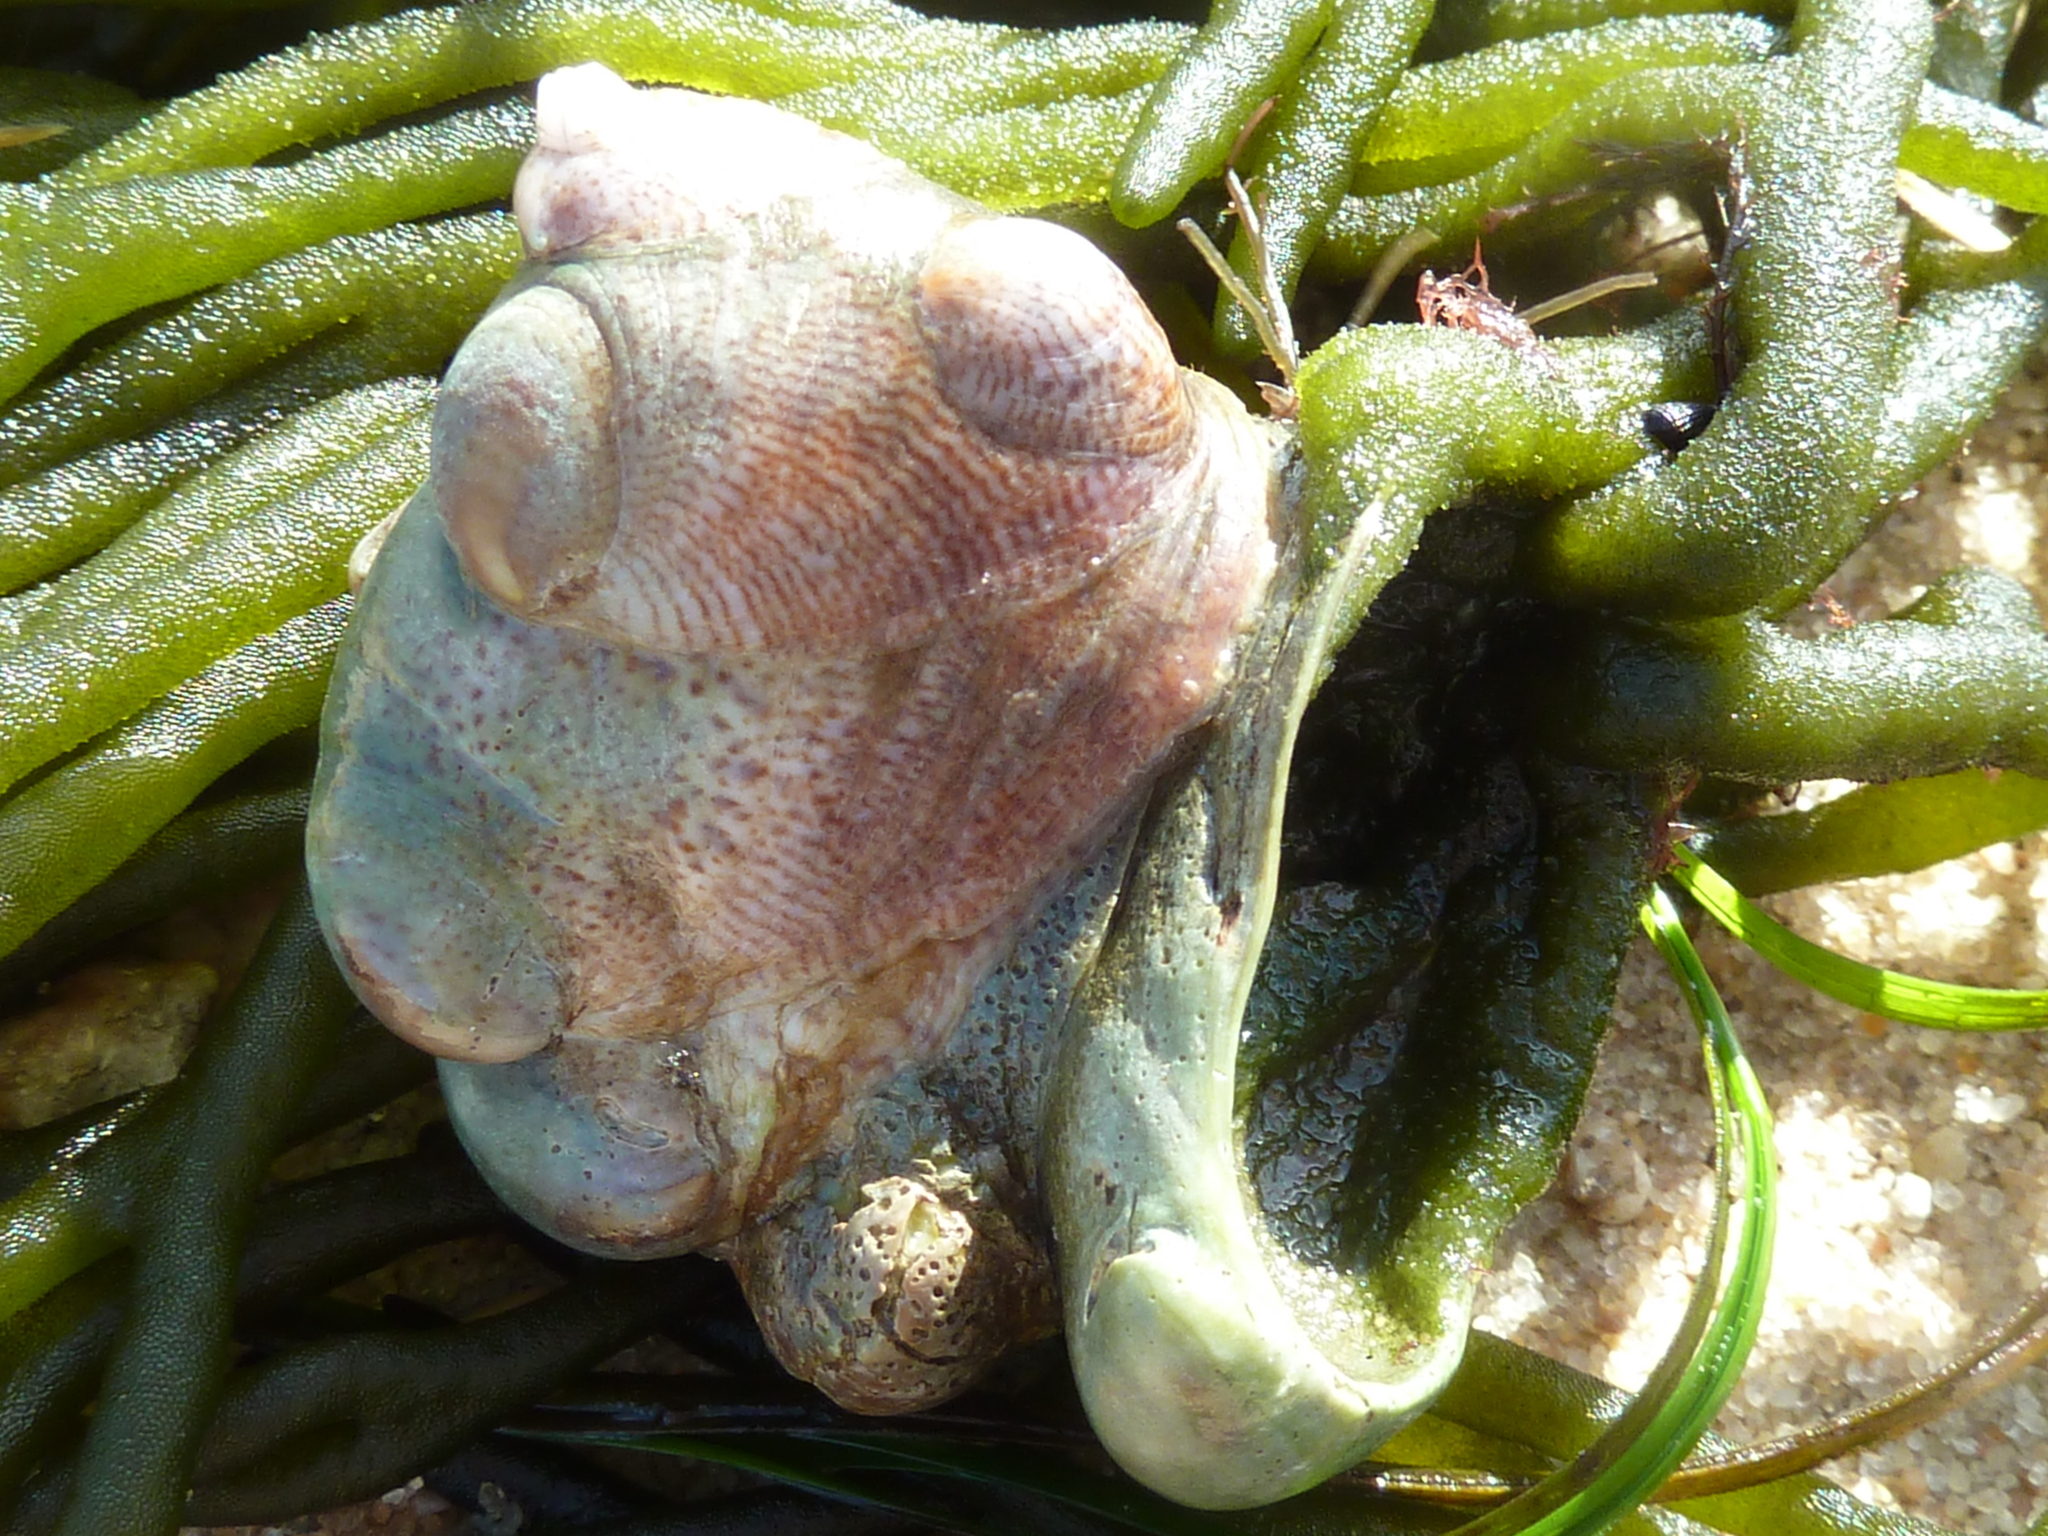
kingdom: Animalia
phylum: Mollusca
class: Gastropoda
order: Littorinimorpha
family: Calyptraeidae
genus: Crepidula
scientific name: Crepidula fornicata
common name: Slipper limpet
